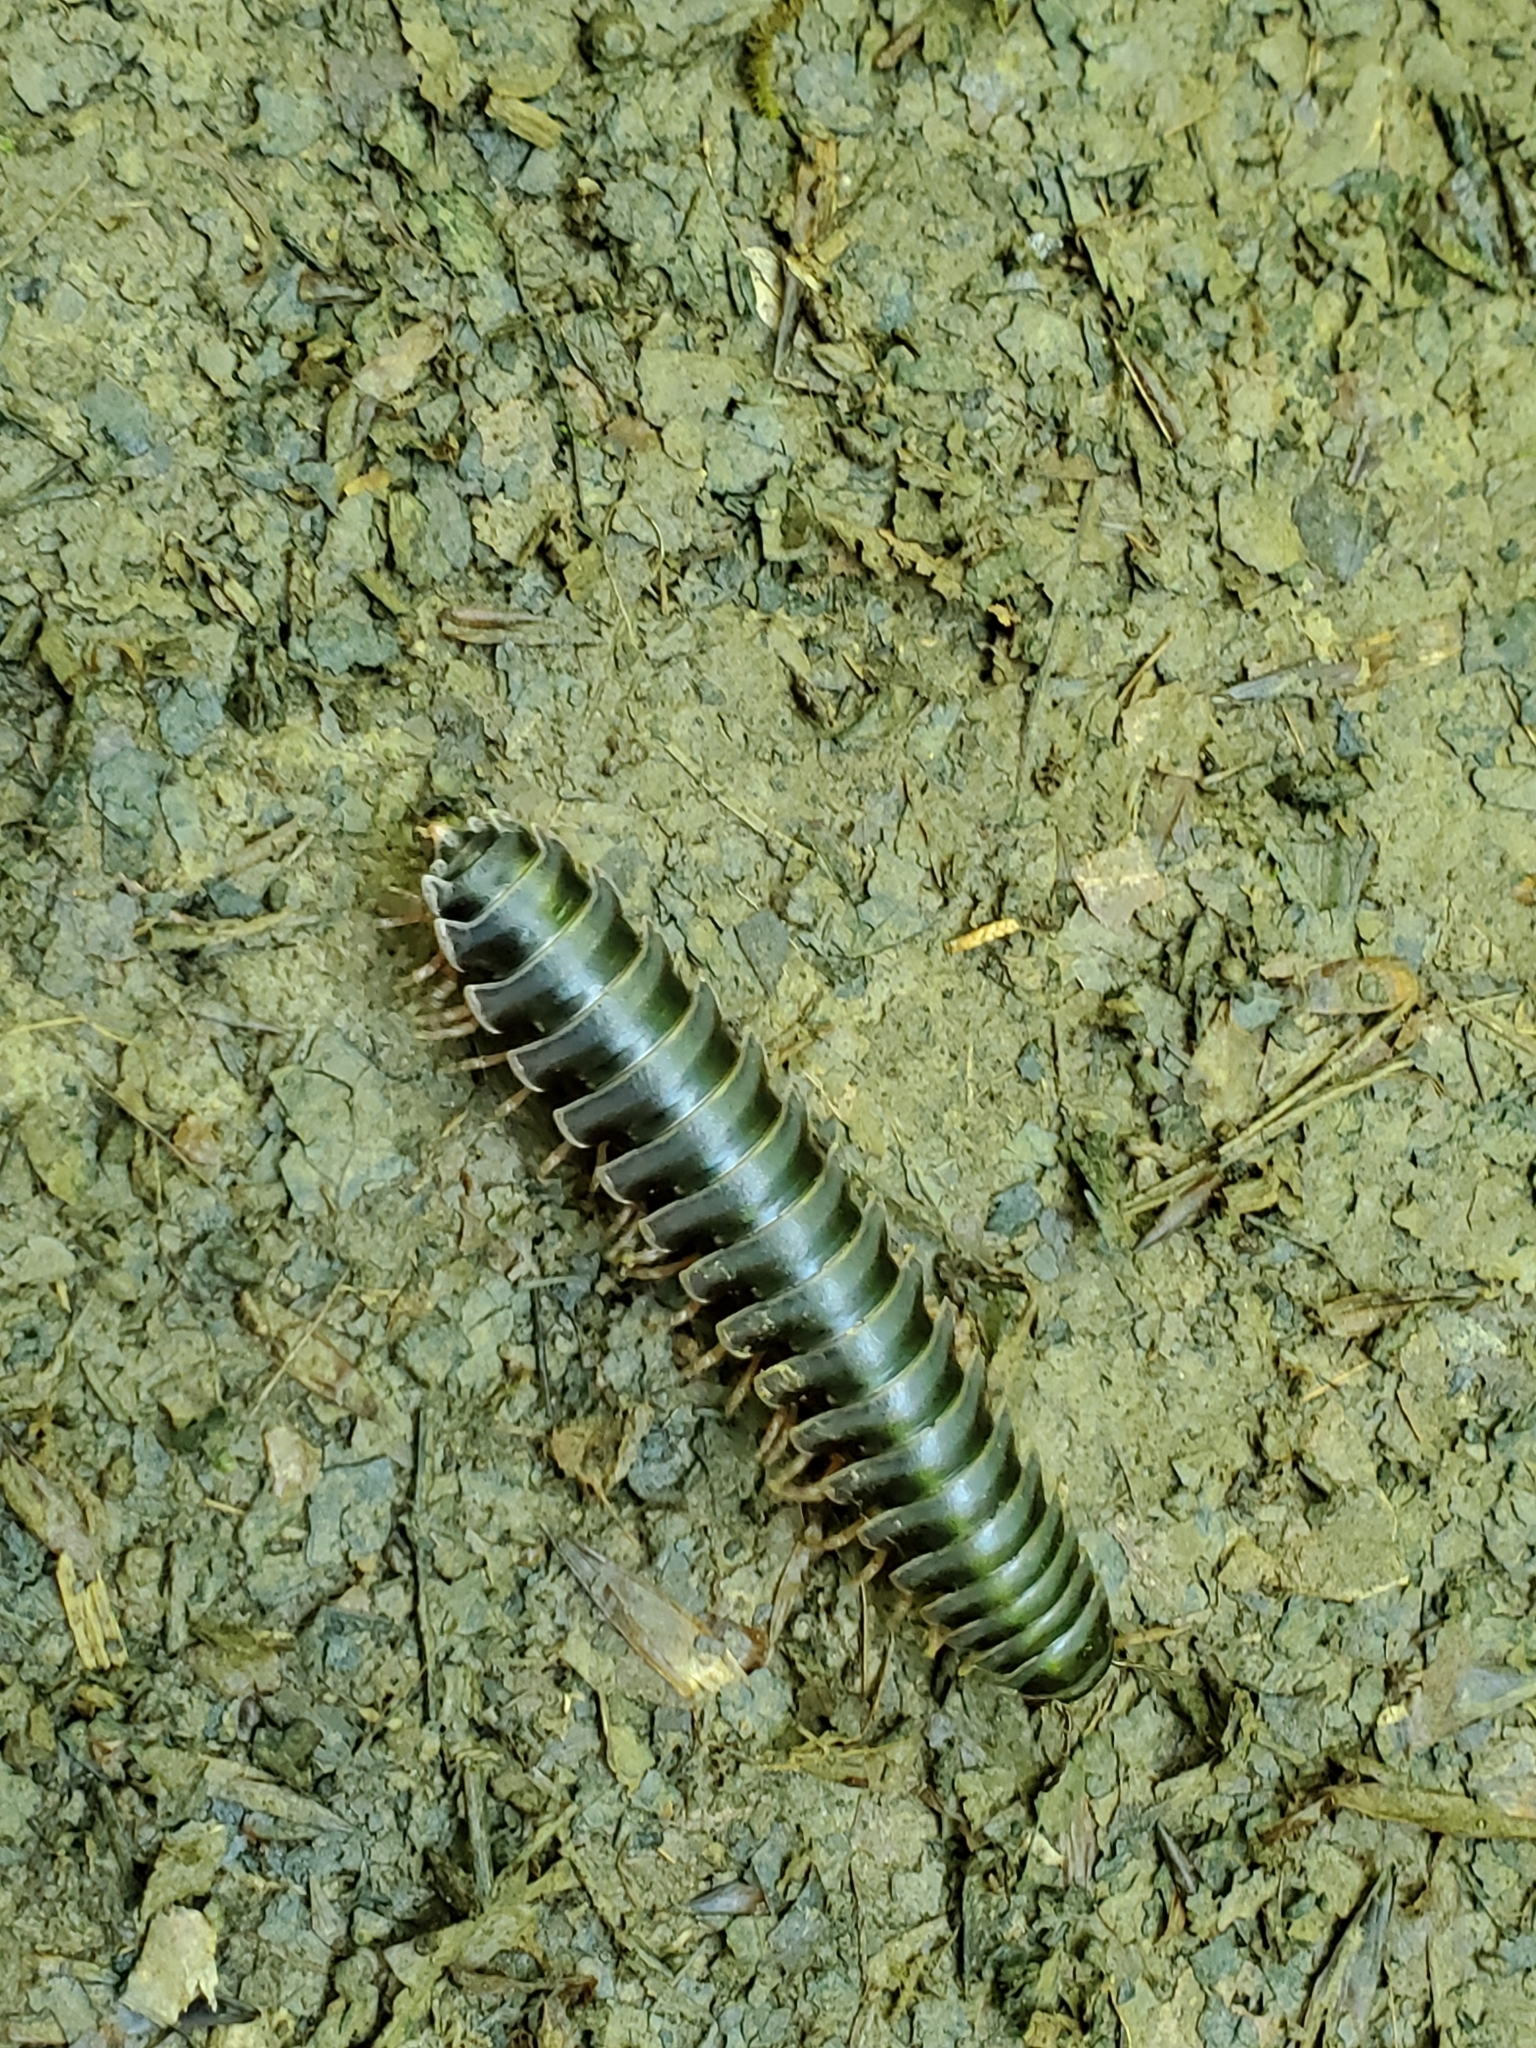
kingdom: Animalia
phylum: Arthropoda
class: Diplopoda
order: Polydesmida
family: Xystodesmidae
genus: Falloria
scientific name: Falloria ainsliei
